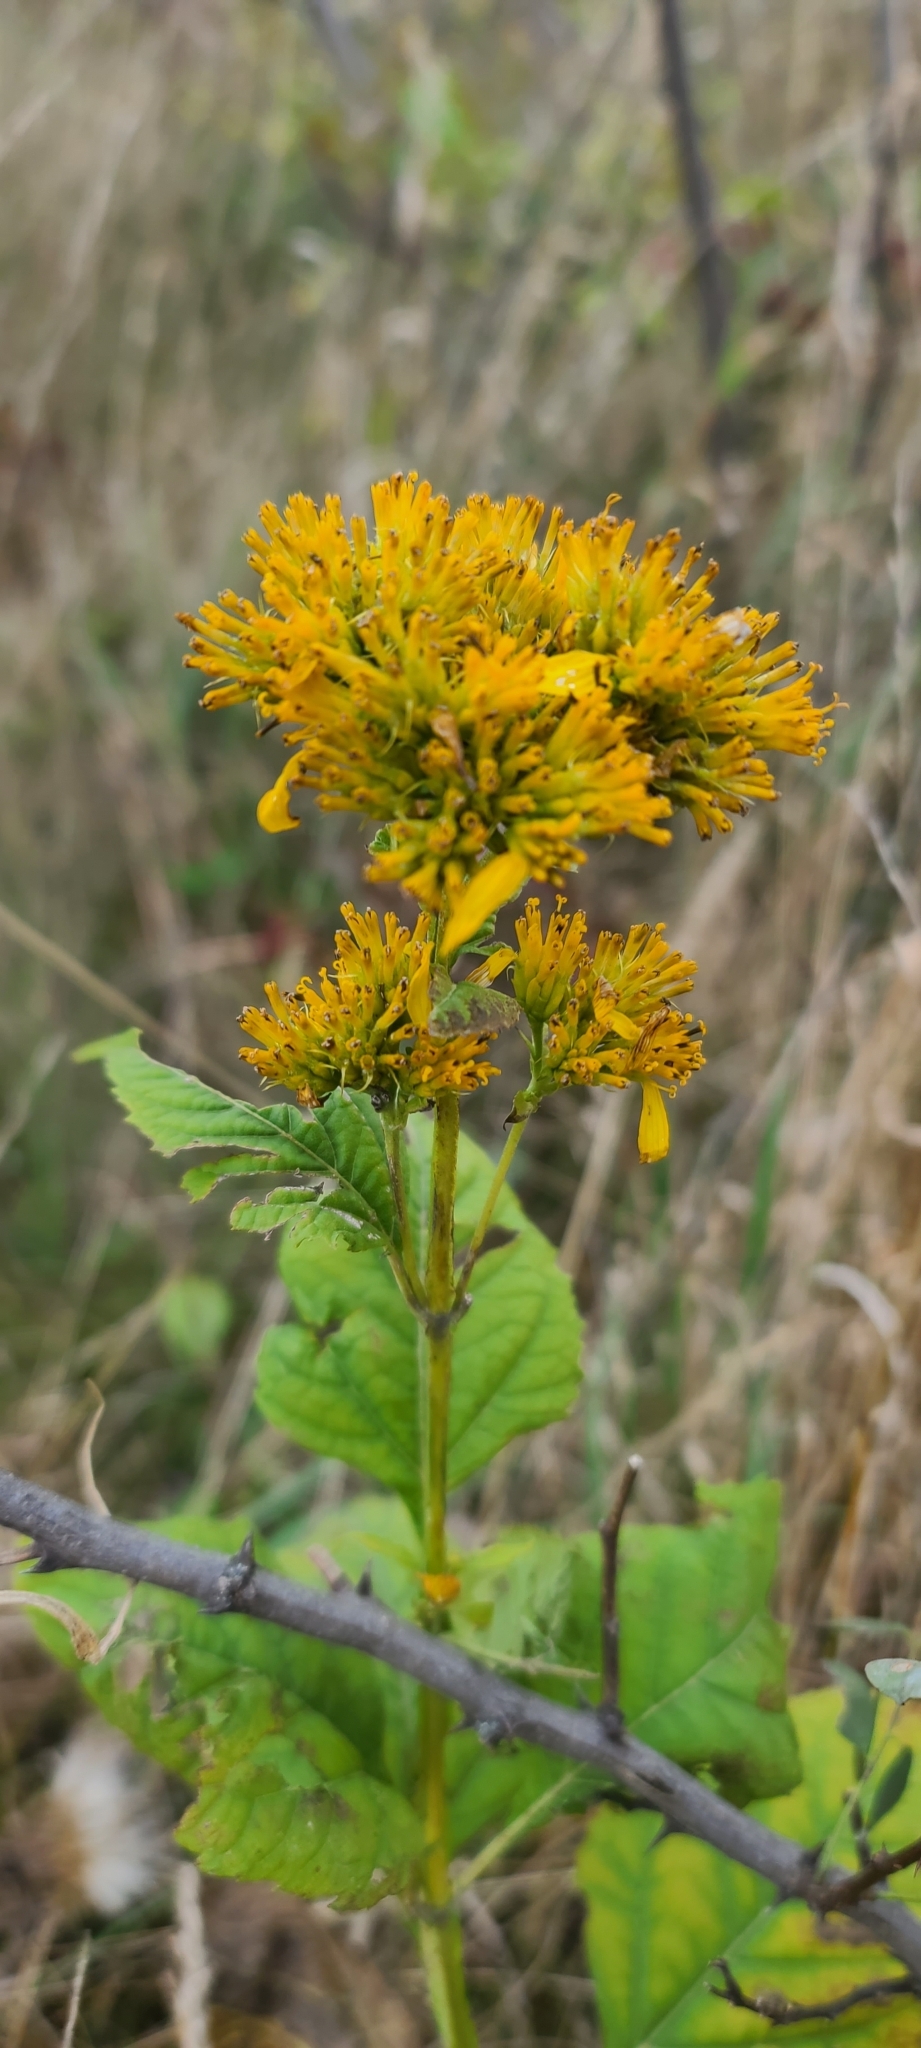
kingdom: Plantae
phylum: Tracheophyta
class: Magnoliopsida
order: Asterales
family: Asteraceae
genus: Verbesina
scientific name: Verbesina occidentalis
